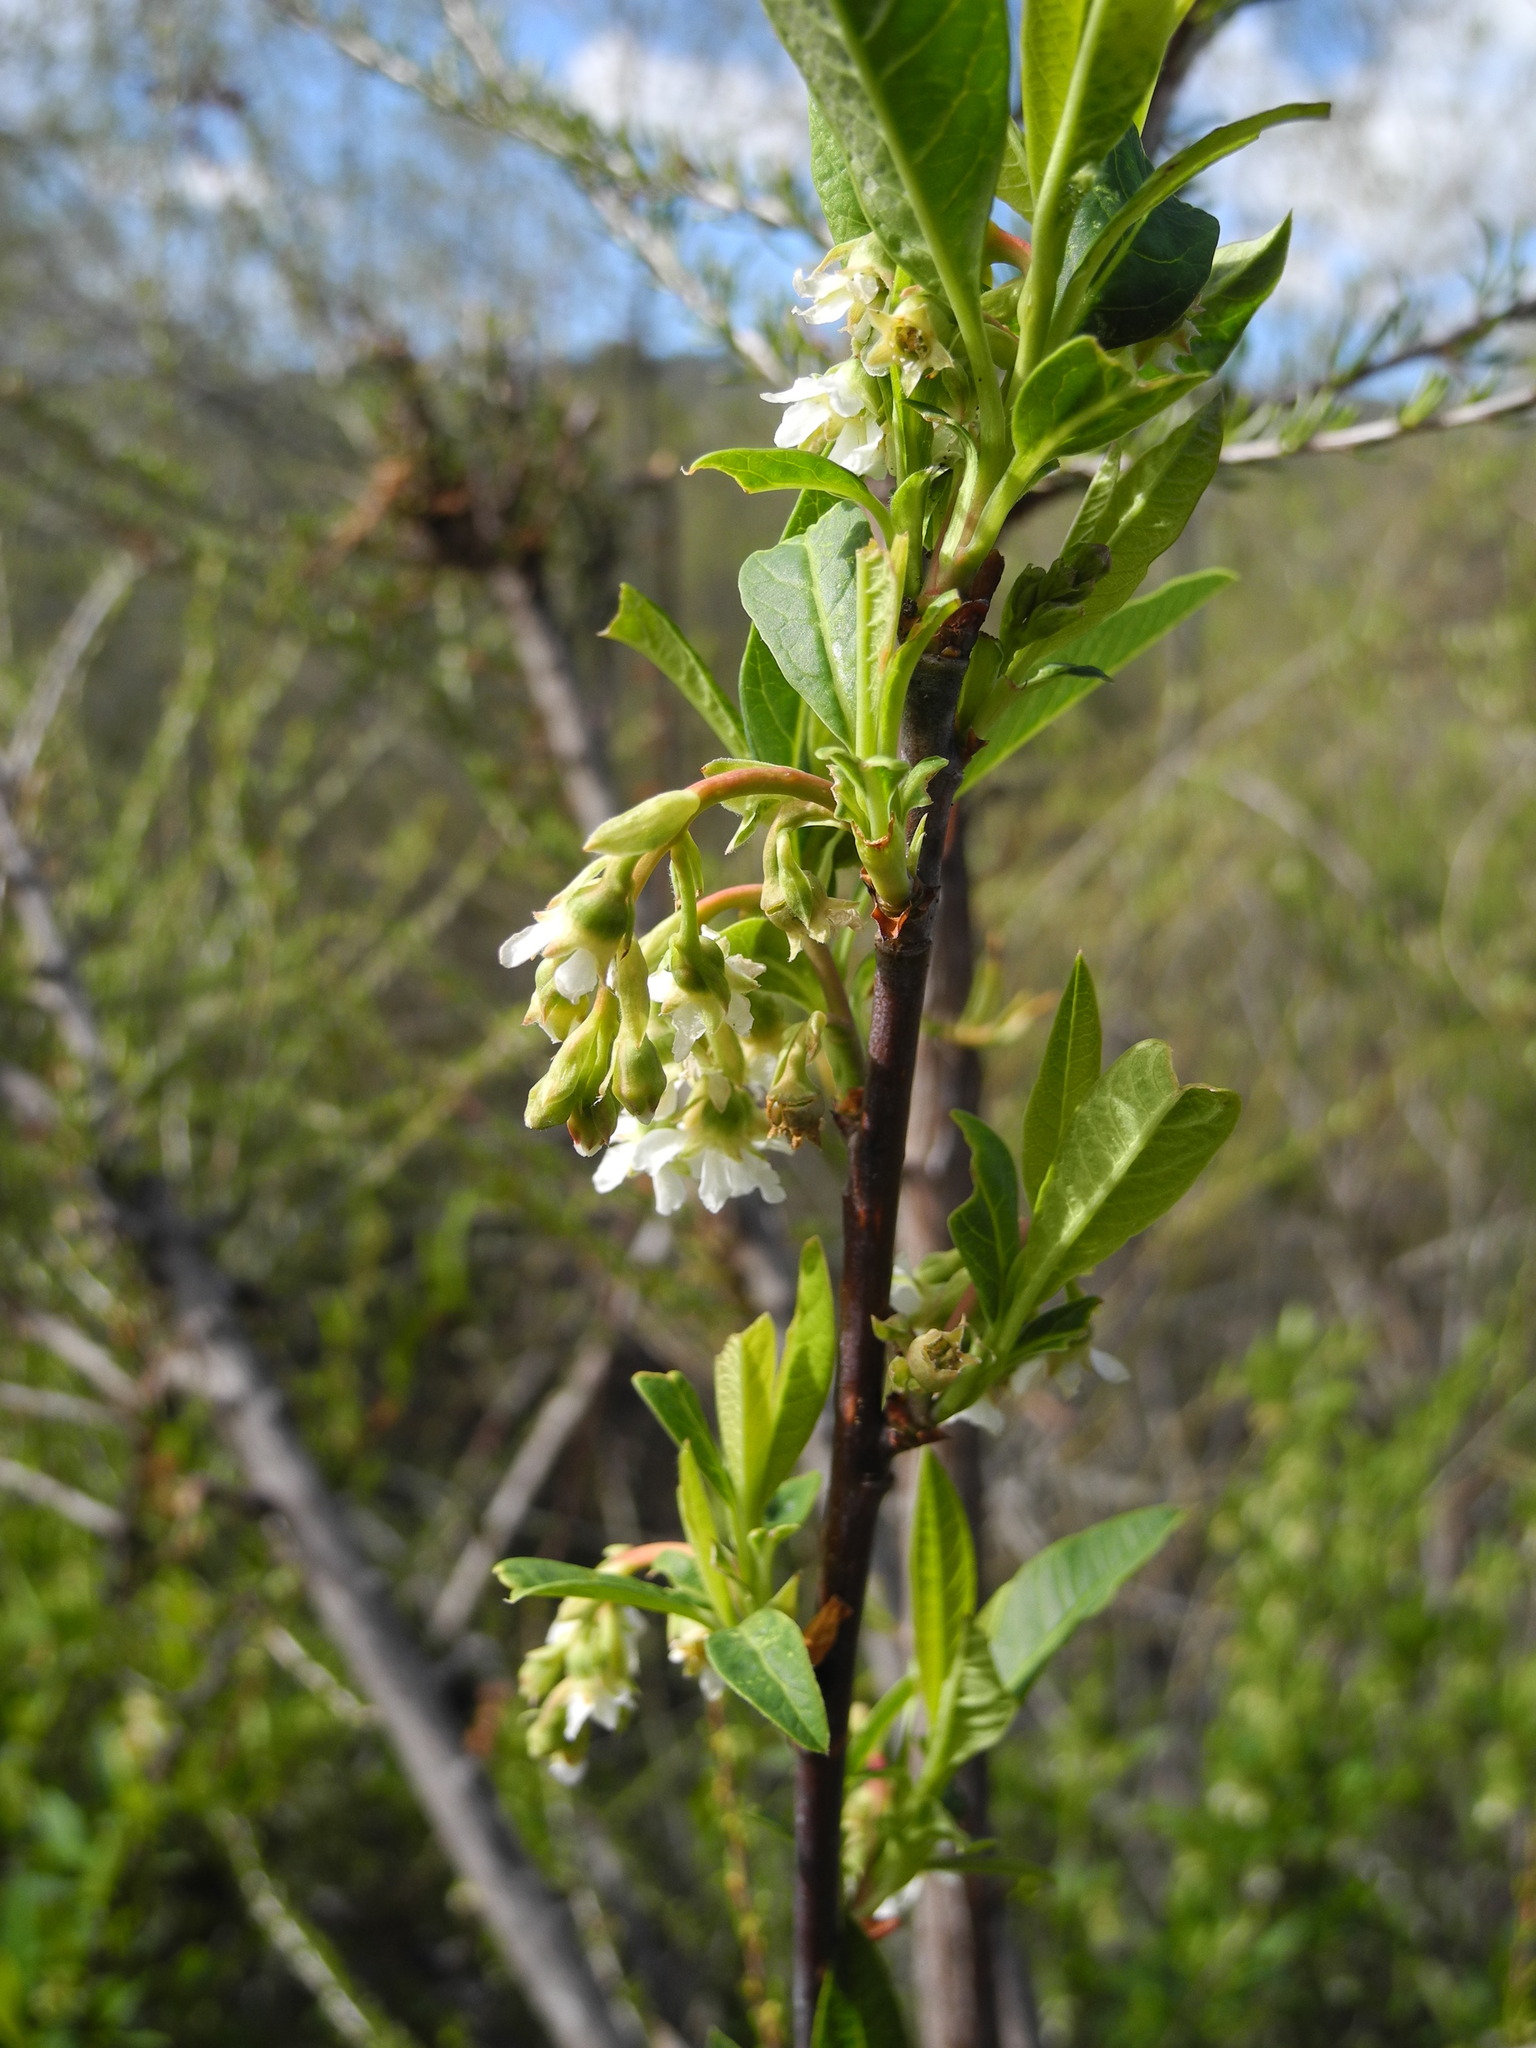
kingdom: Plantae
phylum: Tracheophyta
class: Magnoliopsida
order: Rosales
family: Rosaceae
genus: Oemleria
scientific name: Oemleria cerasiformis
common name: Osoberry
